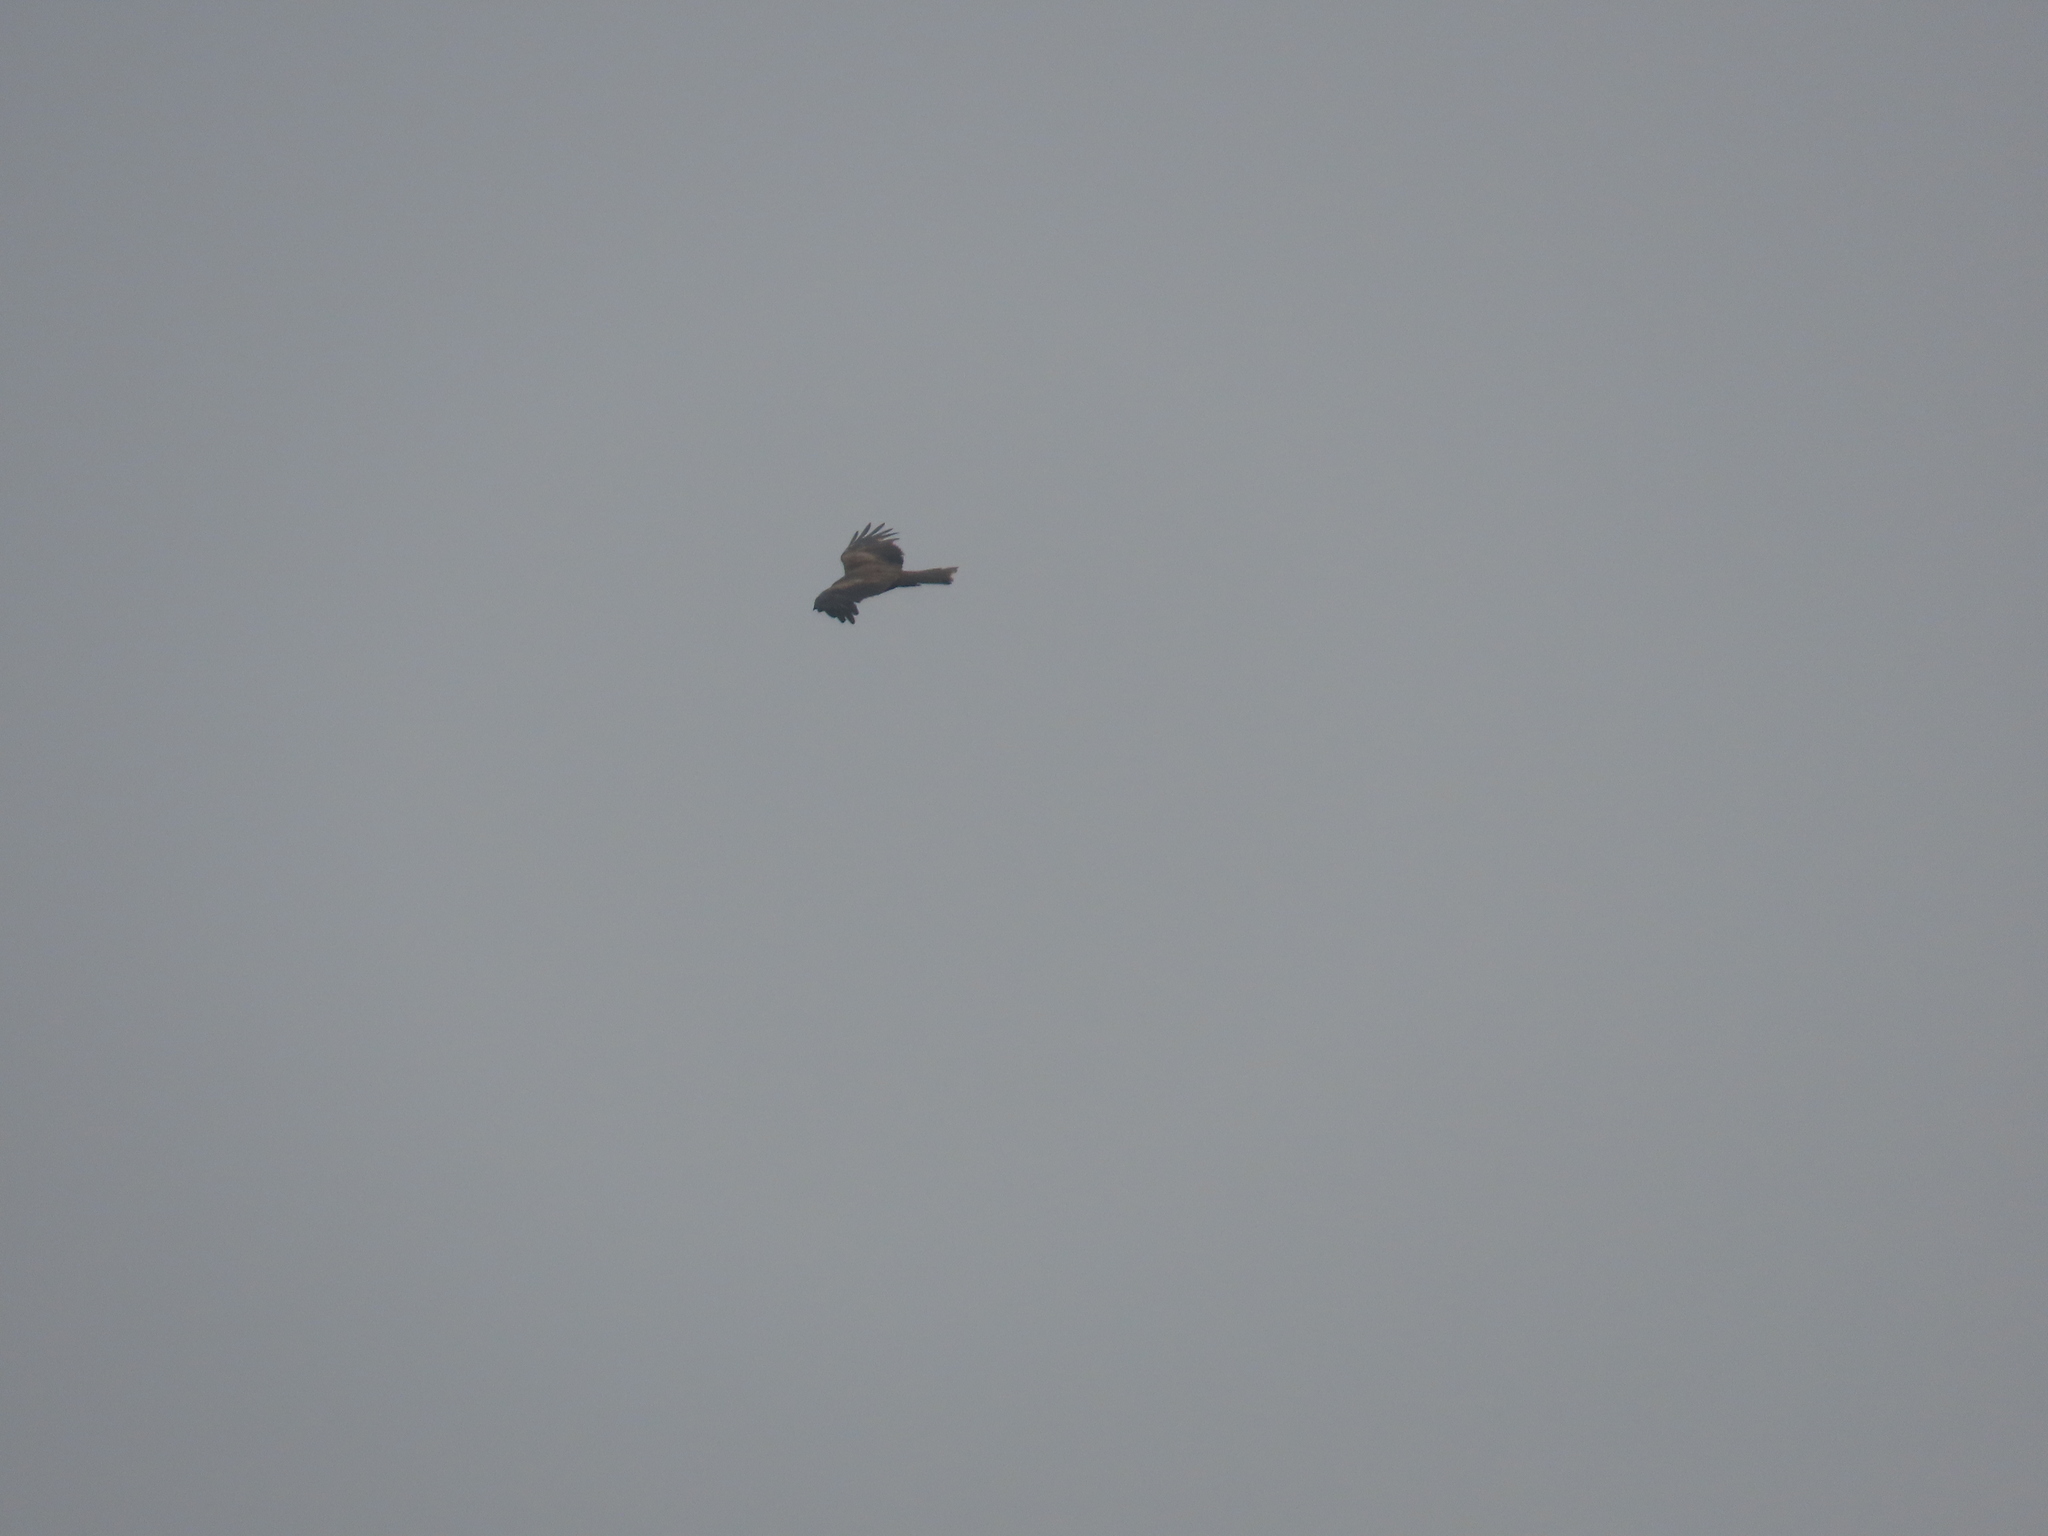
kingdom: Animalia
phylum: Chordata
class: Aves
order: Accipitriformes
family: Accipitridae
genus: Milvus
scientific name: Milvus migrans
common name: Black kite
